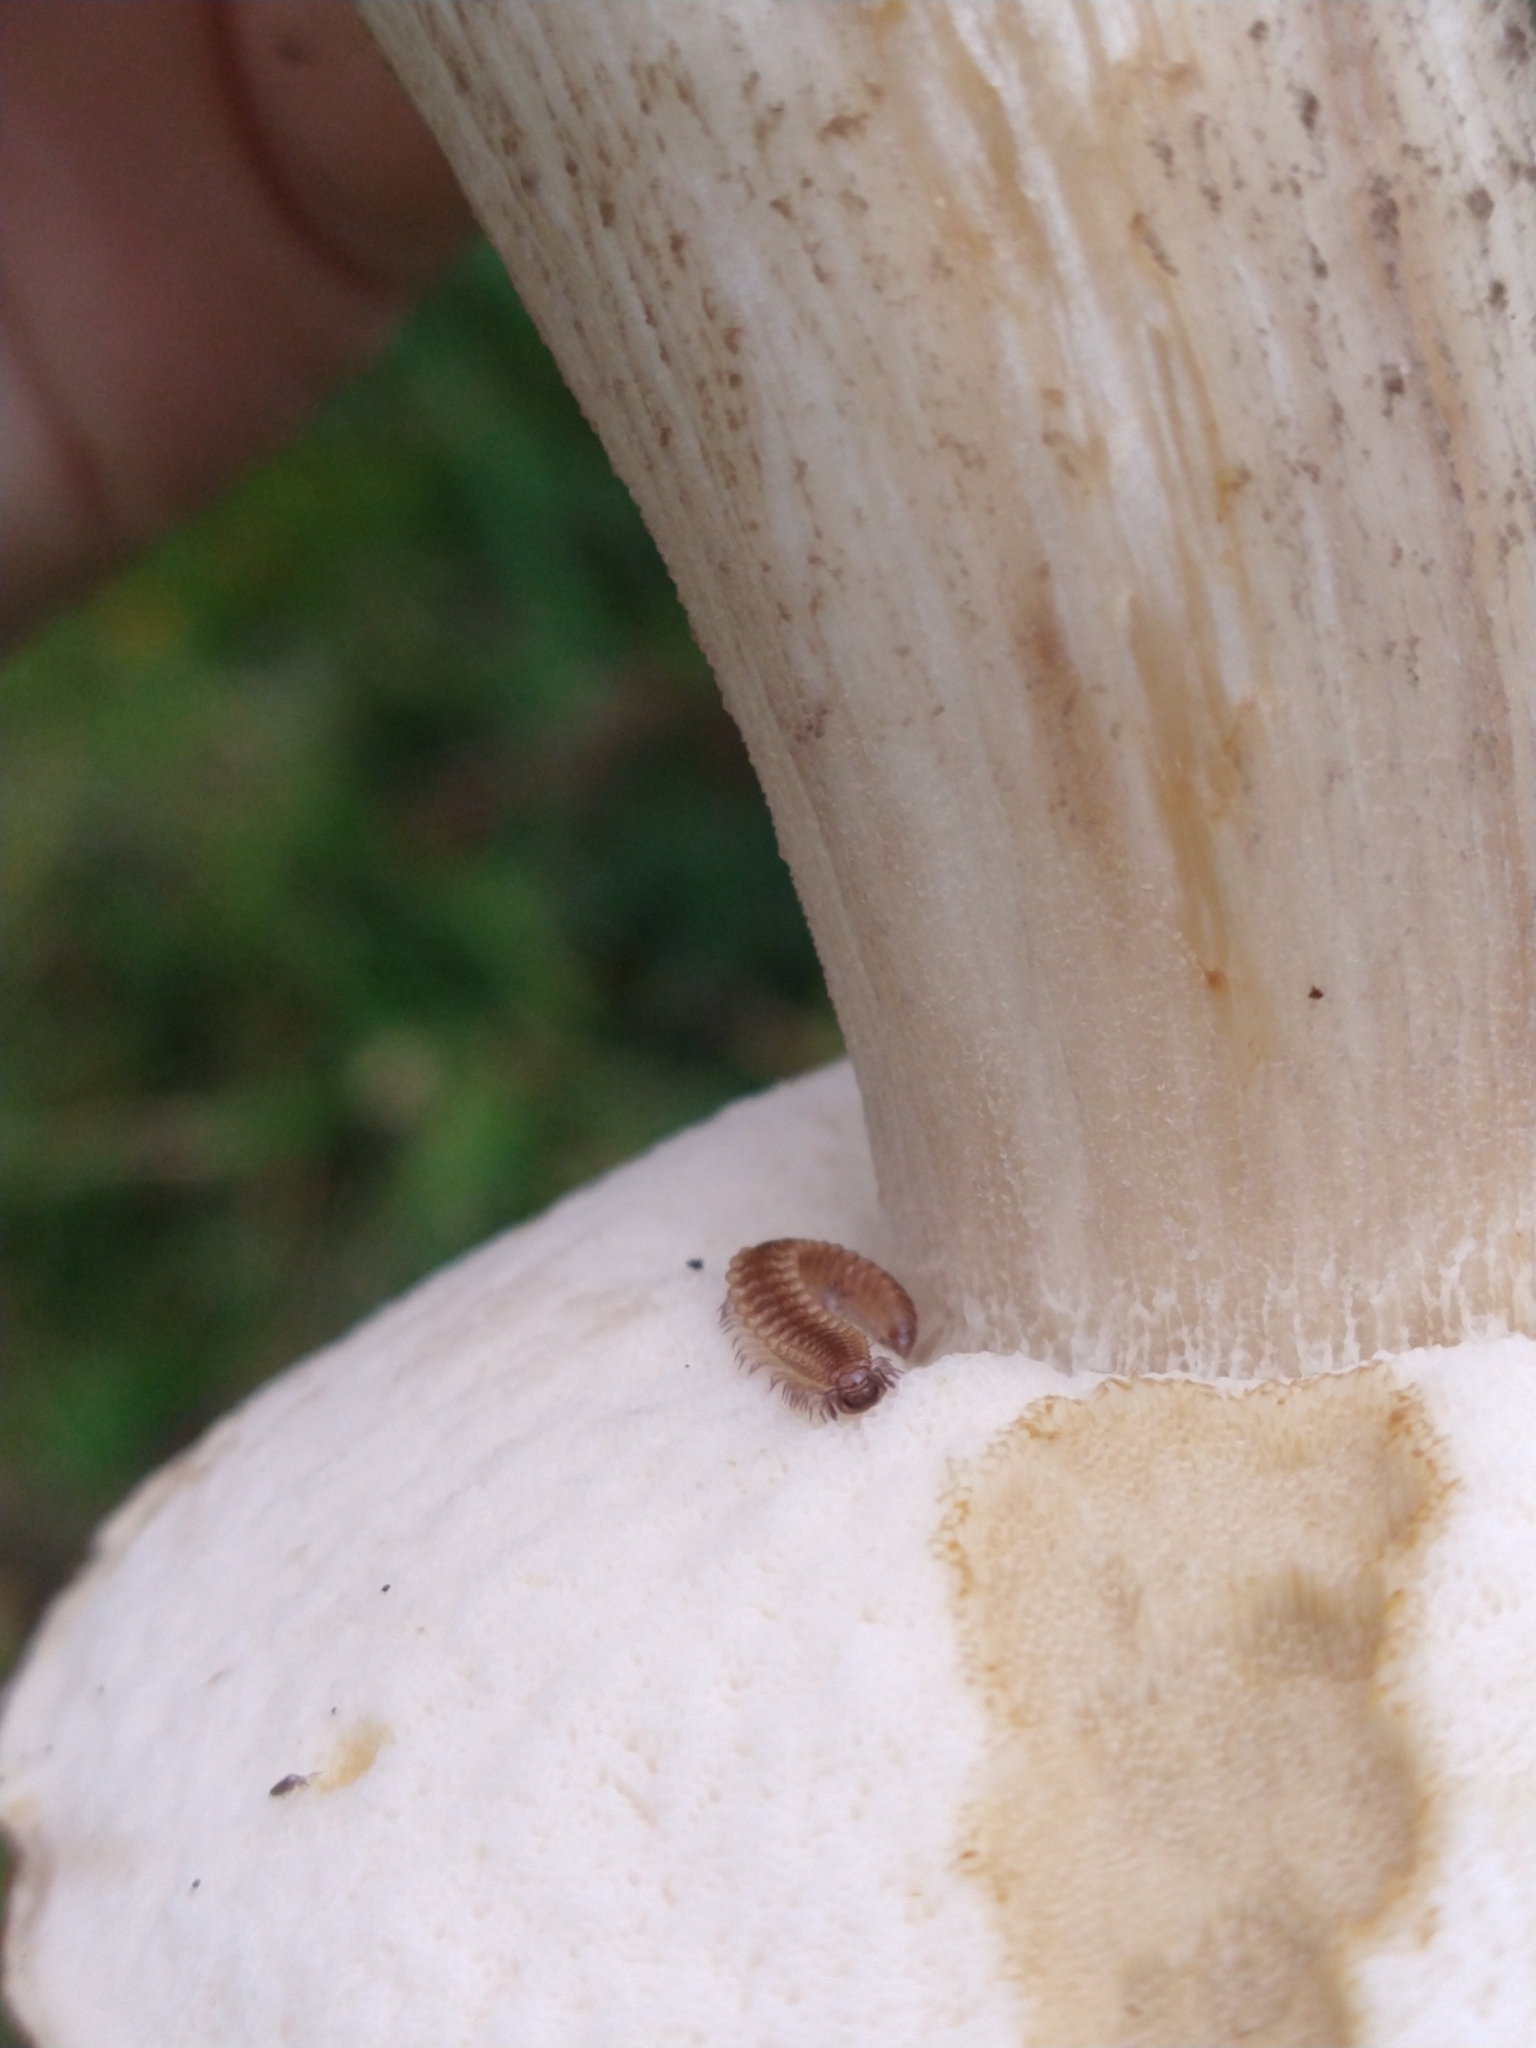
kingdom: Animalia
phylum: Arthropoda
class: Diplopoda
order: Chordeumatida
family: Craspedosomatidae
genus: Nanogona
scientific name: Nanogona polydesmoides
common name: Eyed flat-backed millipede
